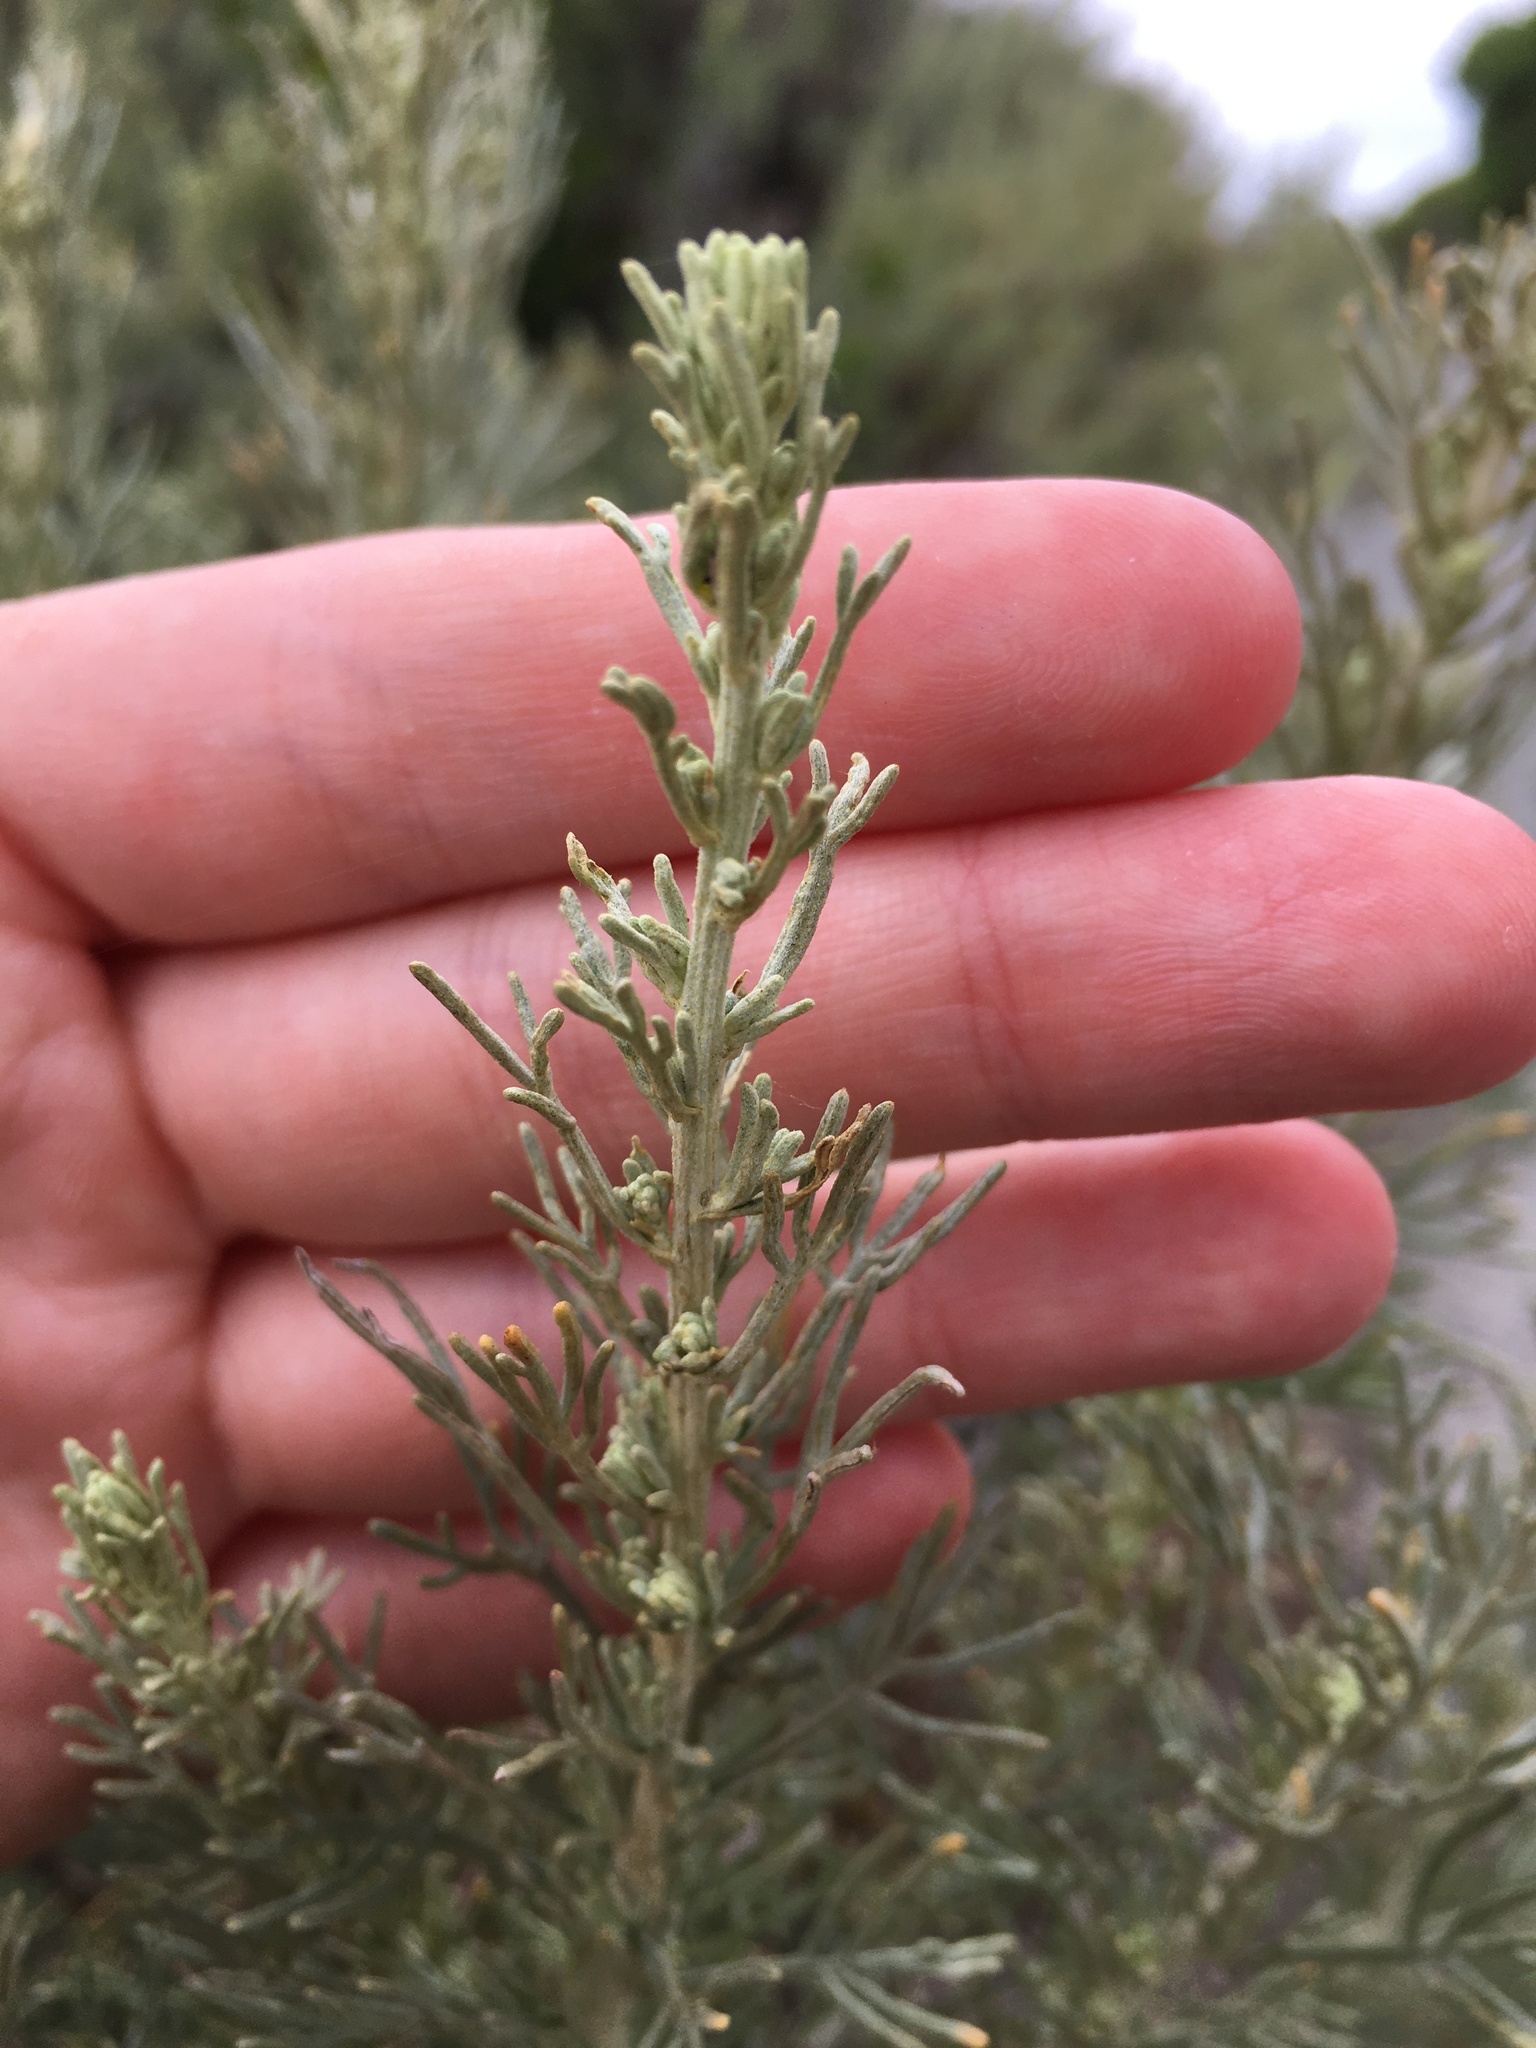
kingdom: Plantae
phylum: Tracheophyta
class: Magnoliopsida
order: Asterales
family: Asteraceae
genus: Artemisia
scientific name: Artemisia californica
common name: California sagebrush
